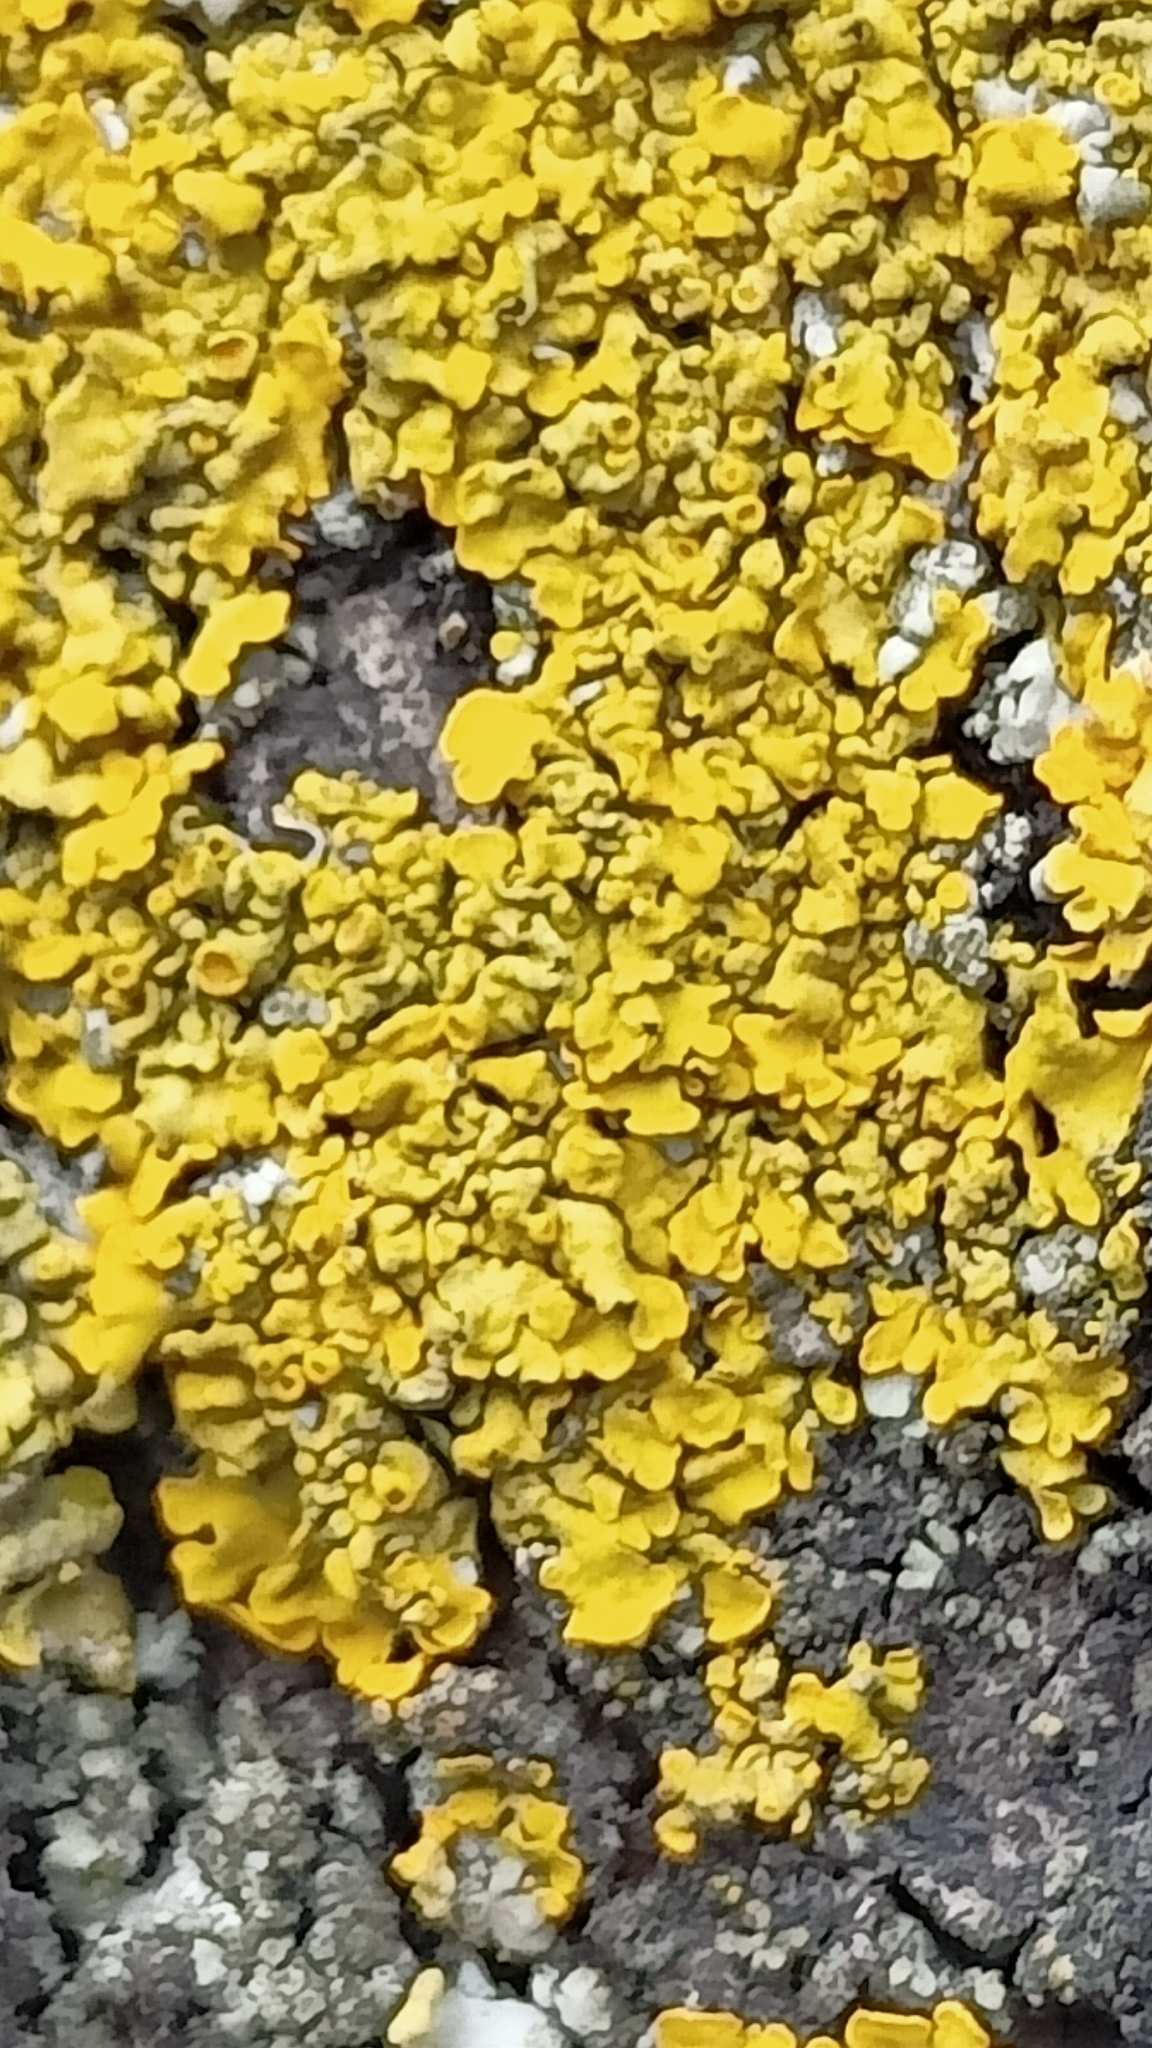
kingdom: Fungi
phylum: Ascomycota
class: Lecanoromycetes
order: Teloschistales
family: Teloschistaceae
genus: Xanthoria
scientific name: Xanthoria parietina
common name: Common orange lichen
